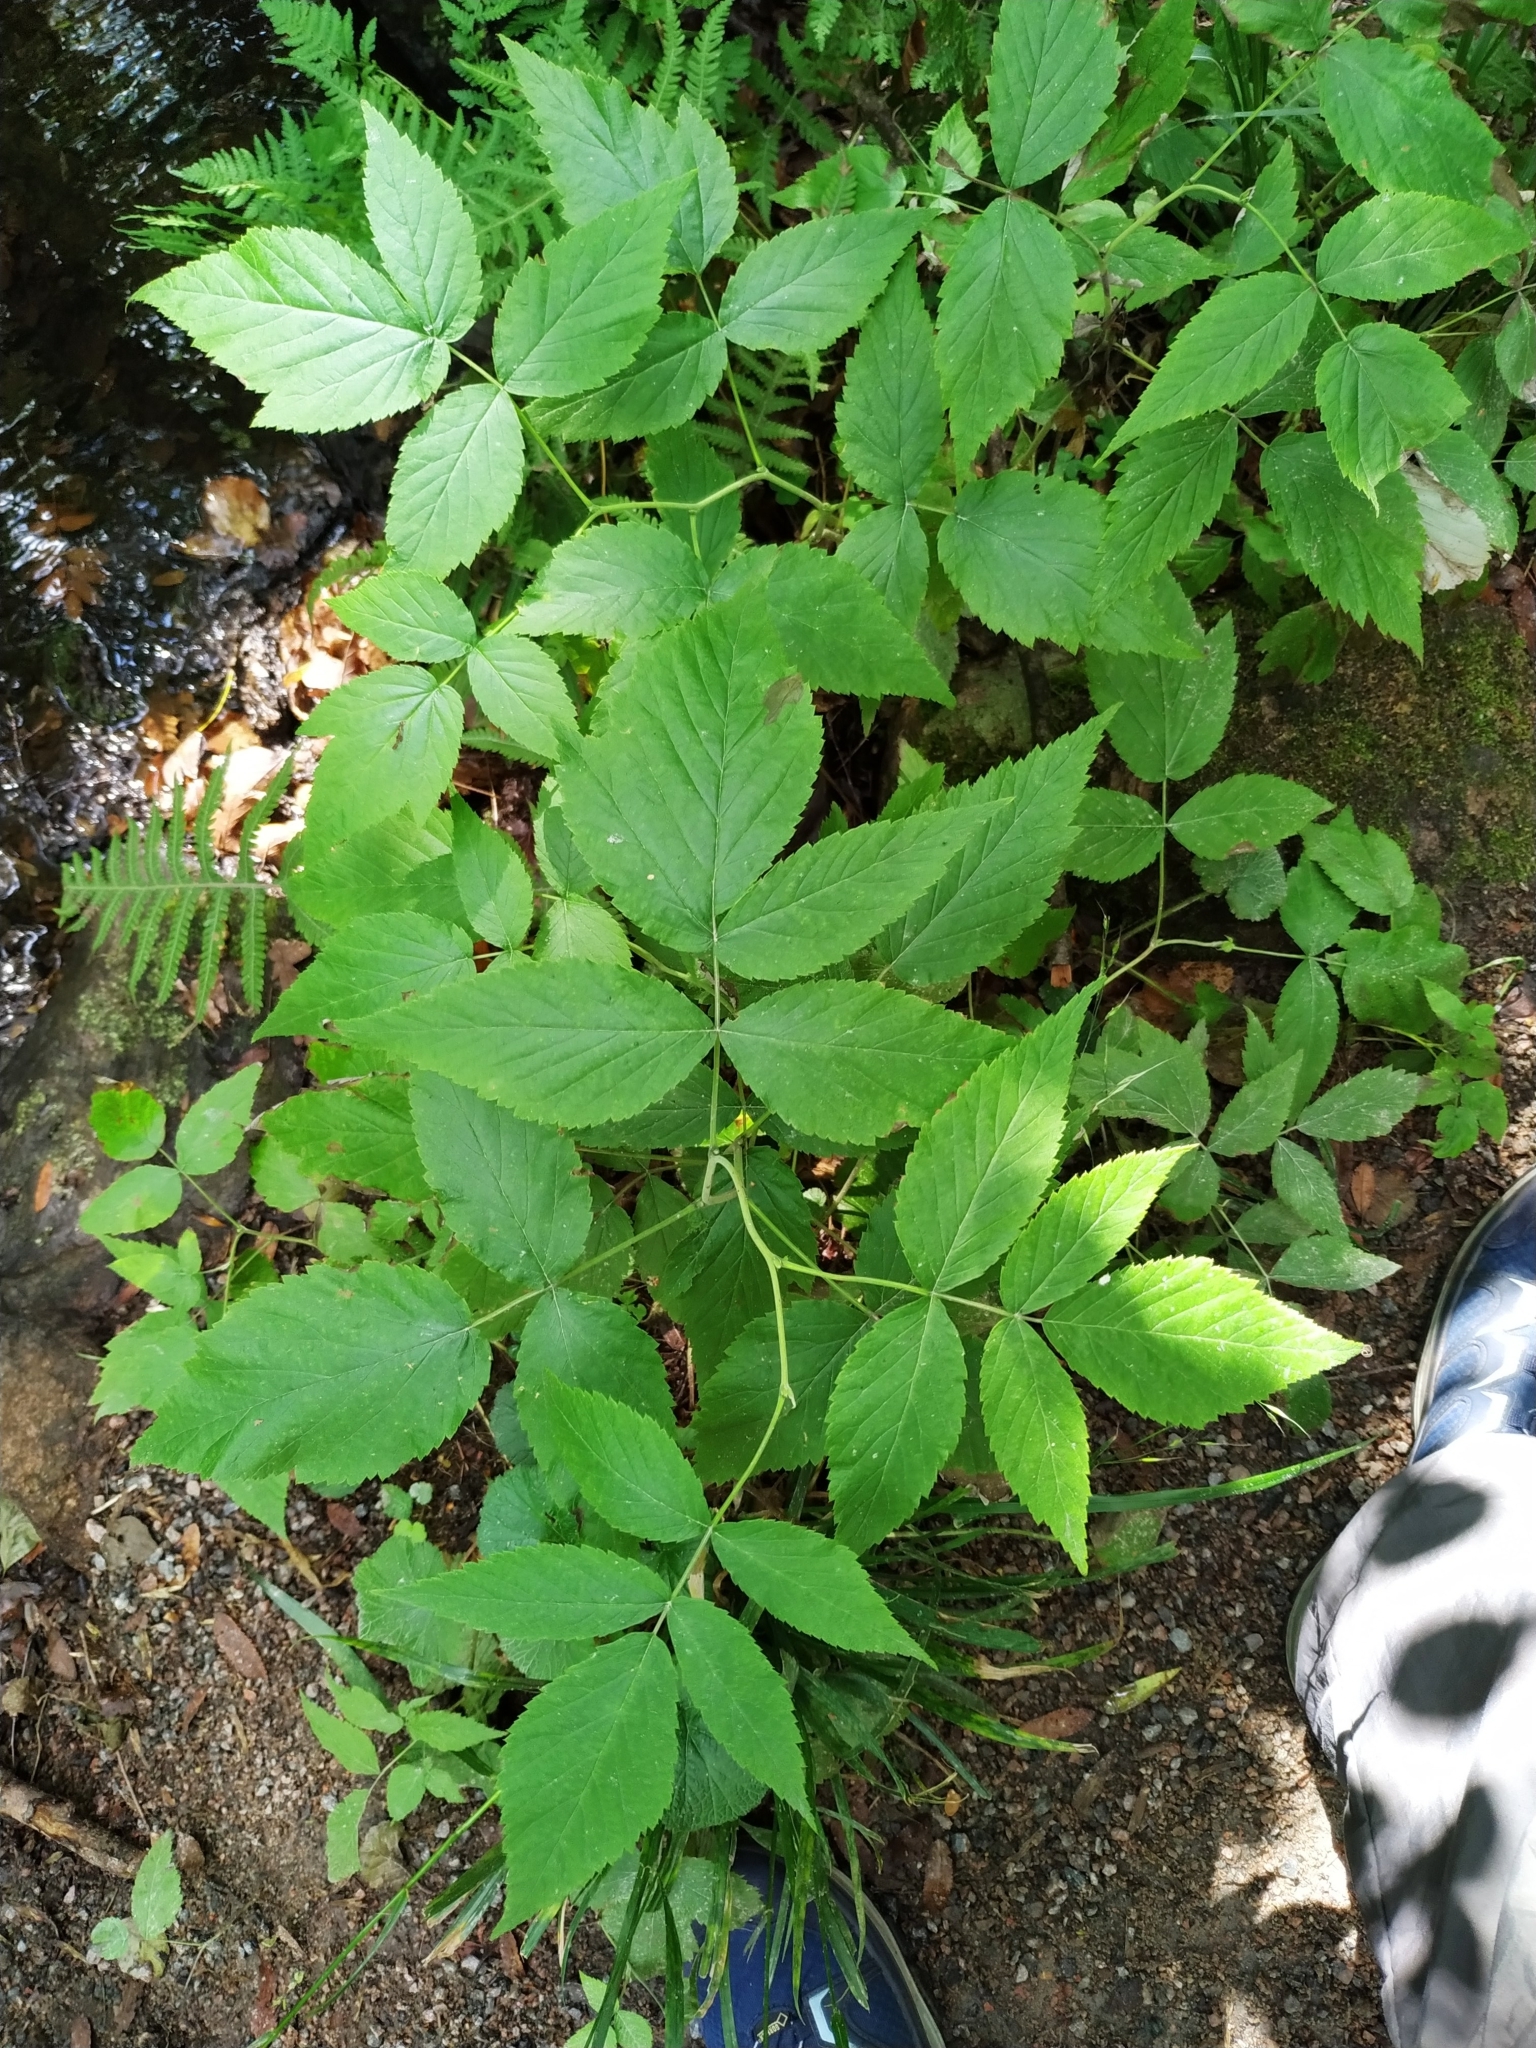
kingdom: Plantae
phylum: Tracheophyta
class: Magnoliopsida
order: Rosales
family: Rosaceae
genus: Rubus
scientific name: Rubus idaeus
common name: Raspberry
